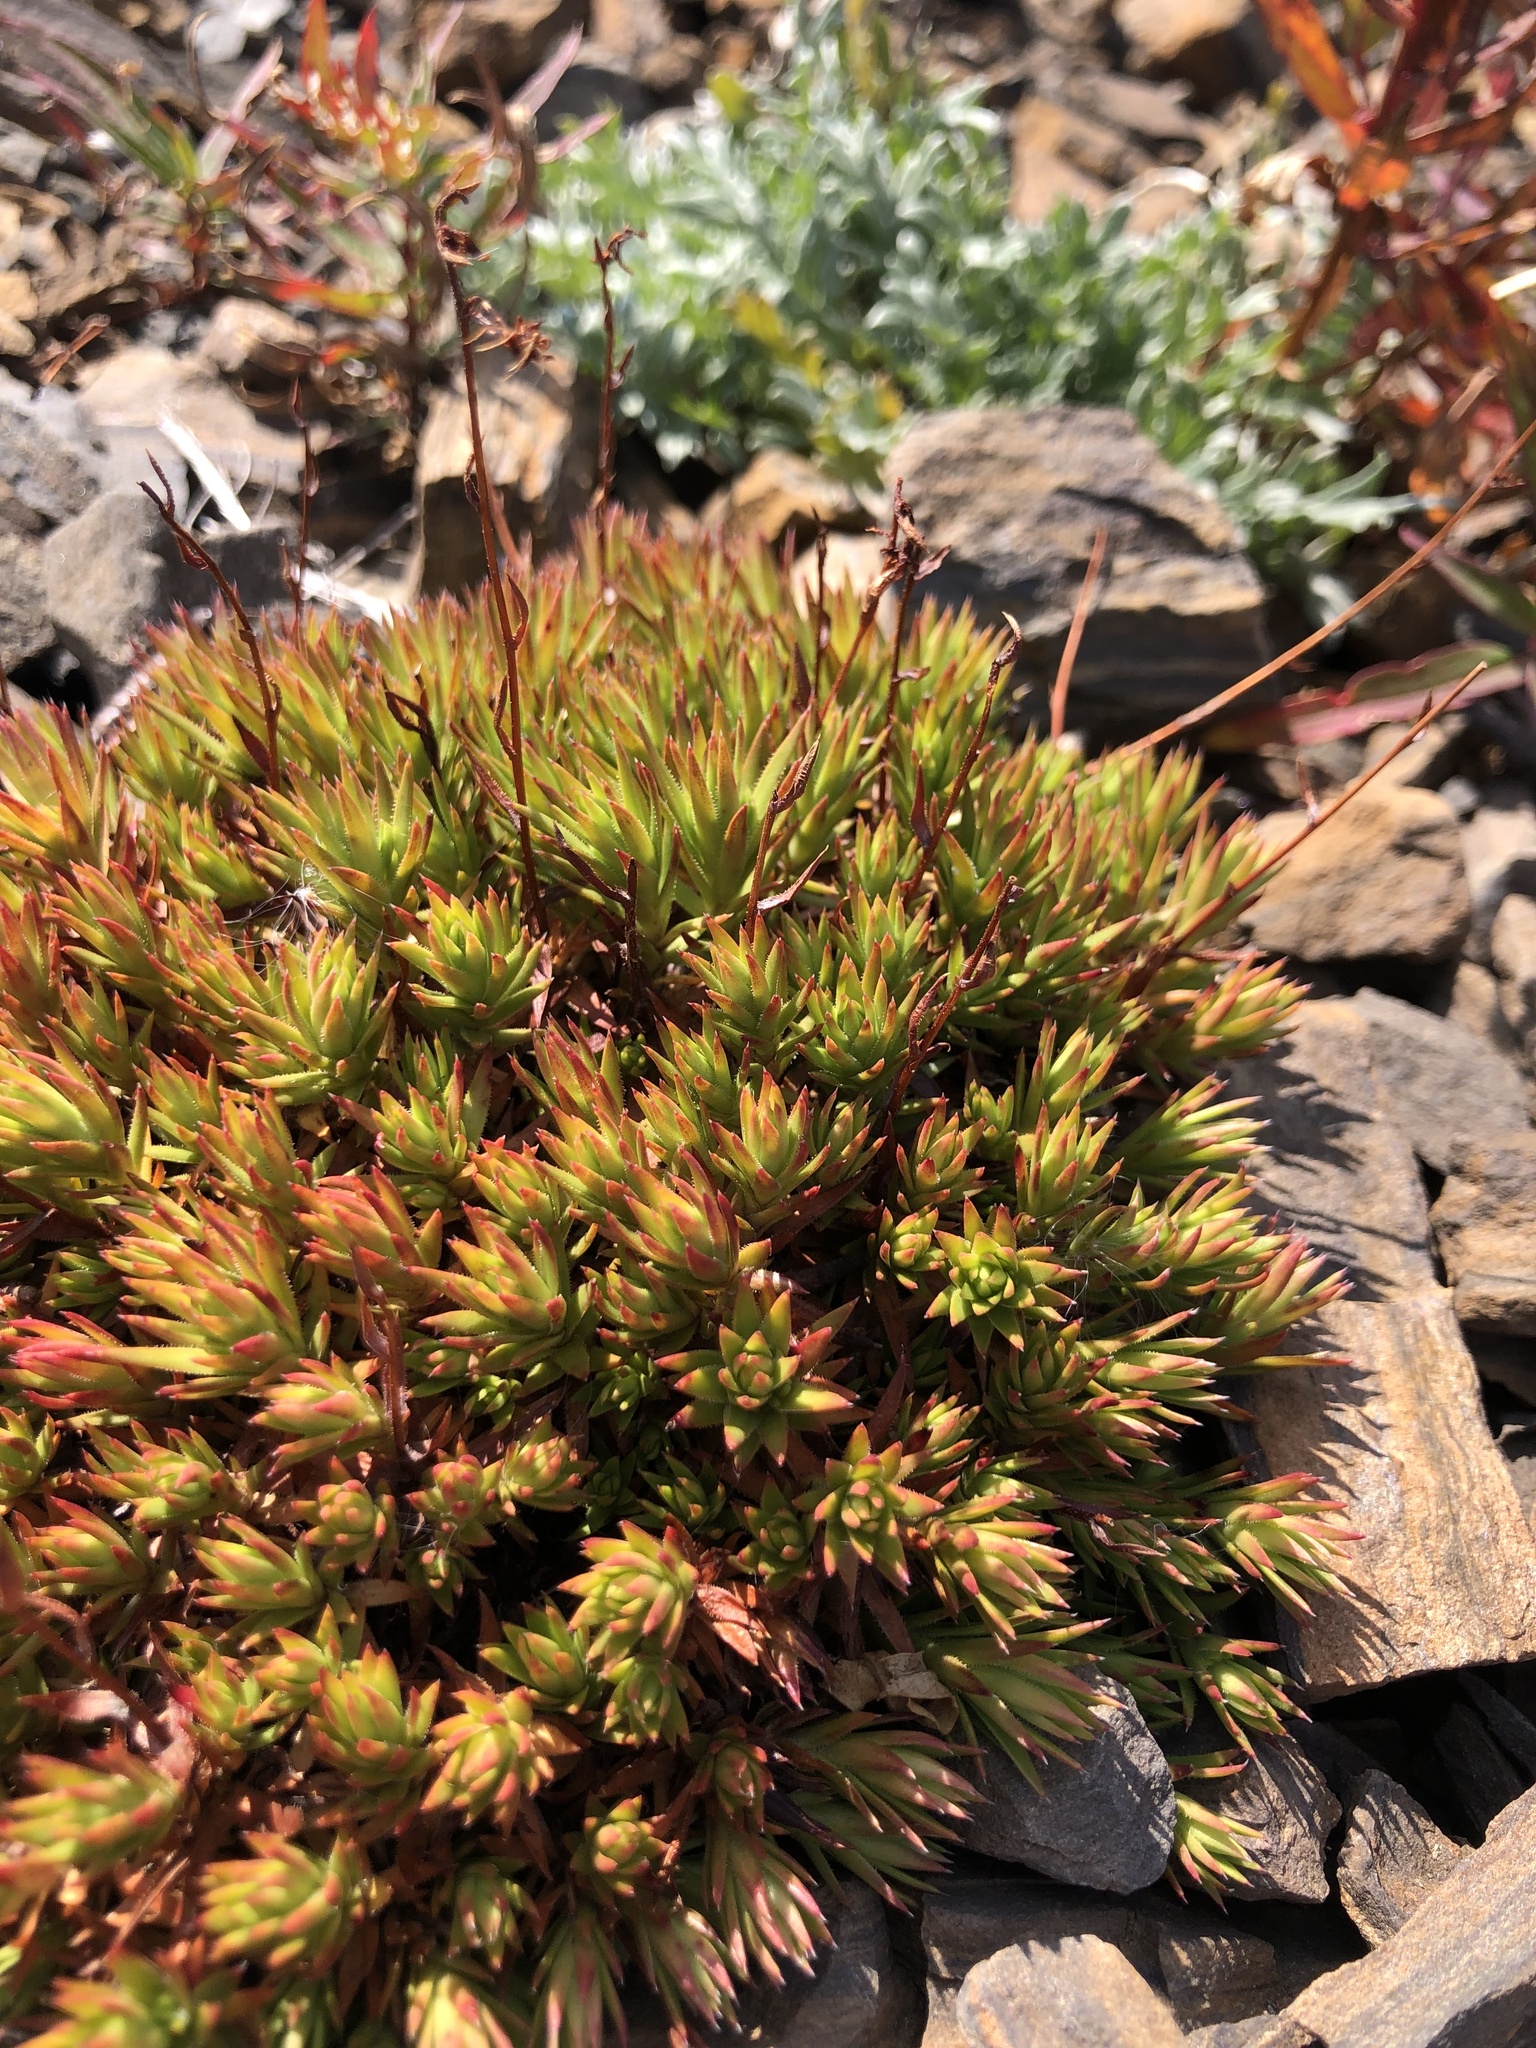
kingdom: Plantae
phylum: Tracheophyta
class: Magnoliopsida
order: Saxifragales
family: Saxifragaceae
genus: Saxifraga
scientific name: Saxifraga bronchialis
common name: Matted saxifrage
